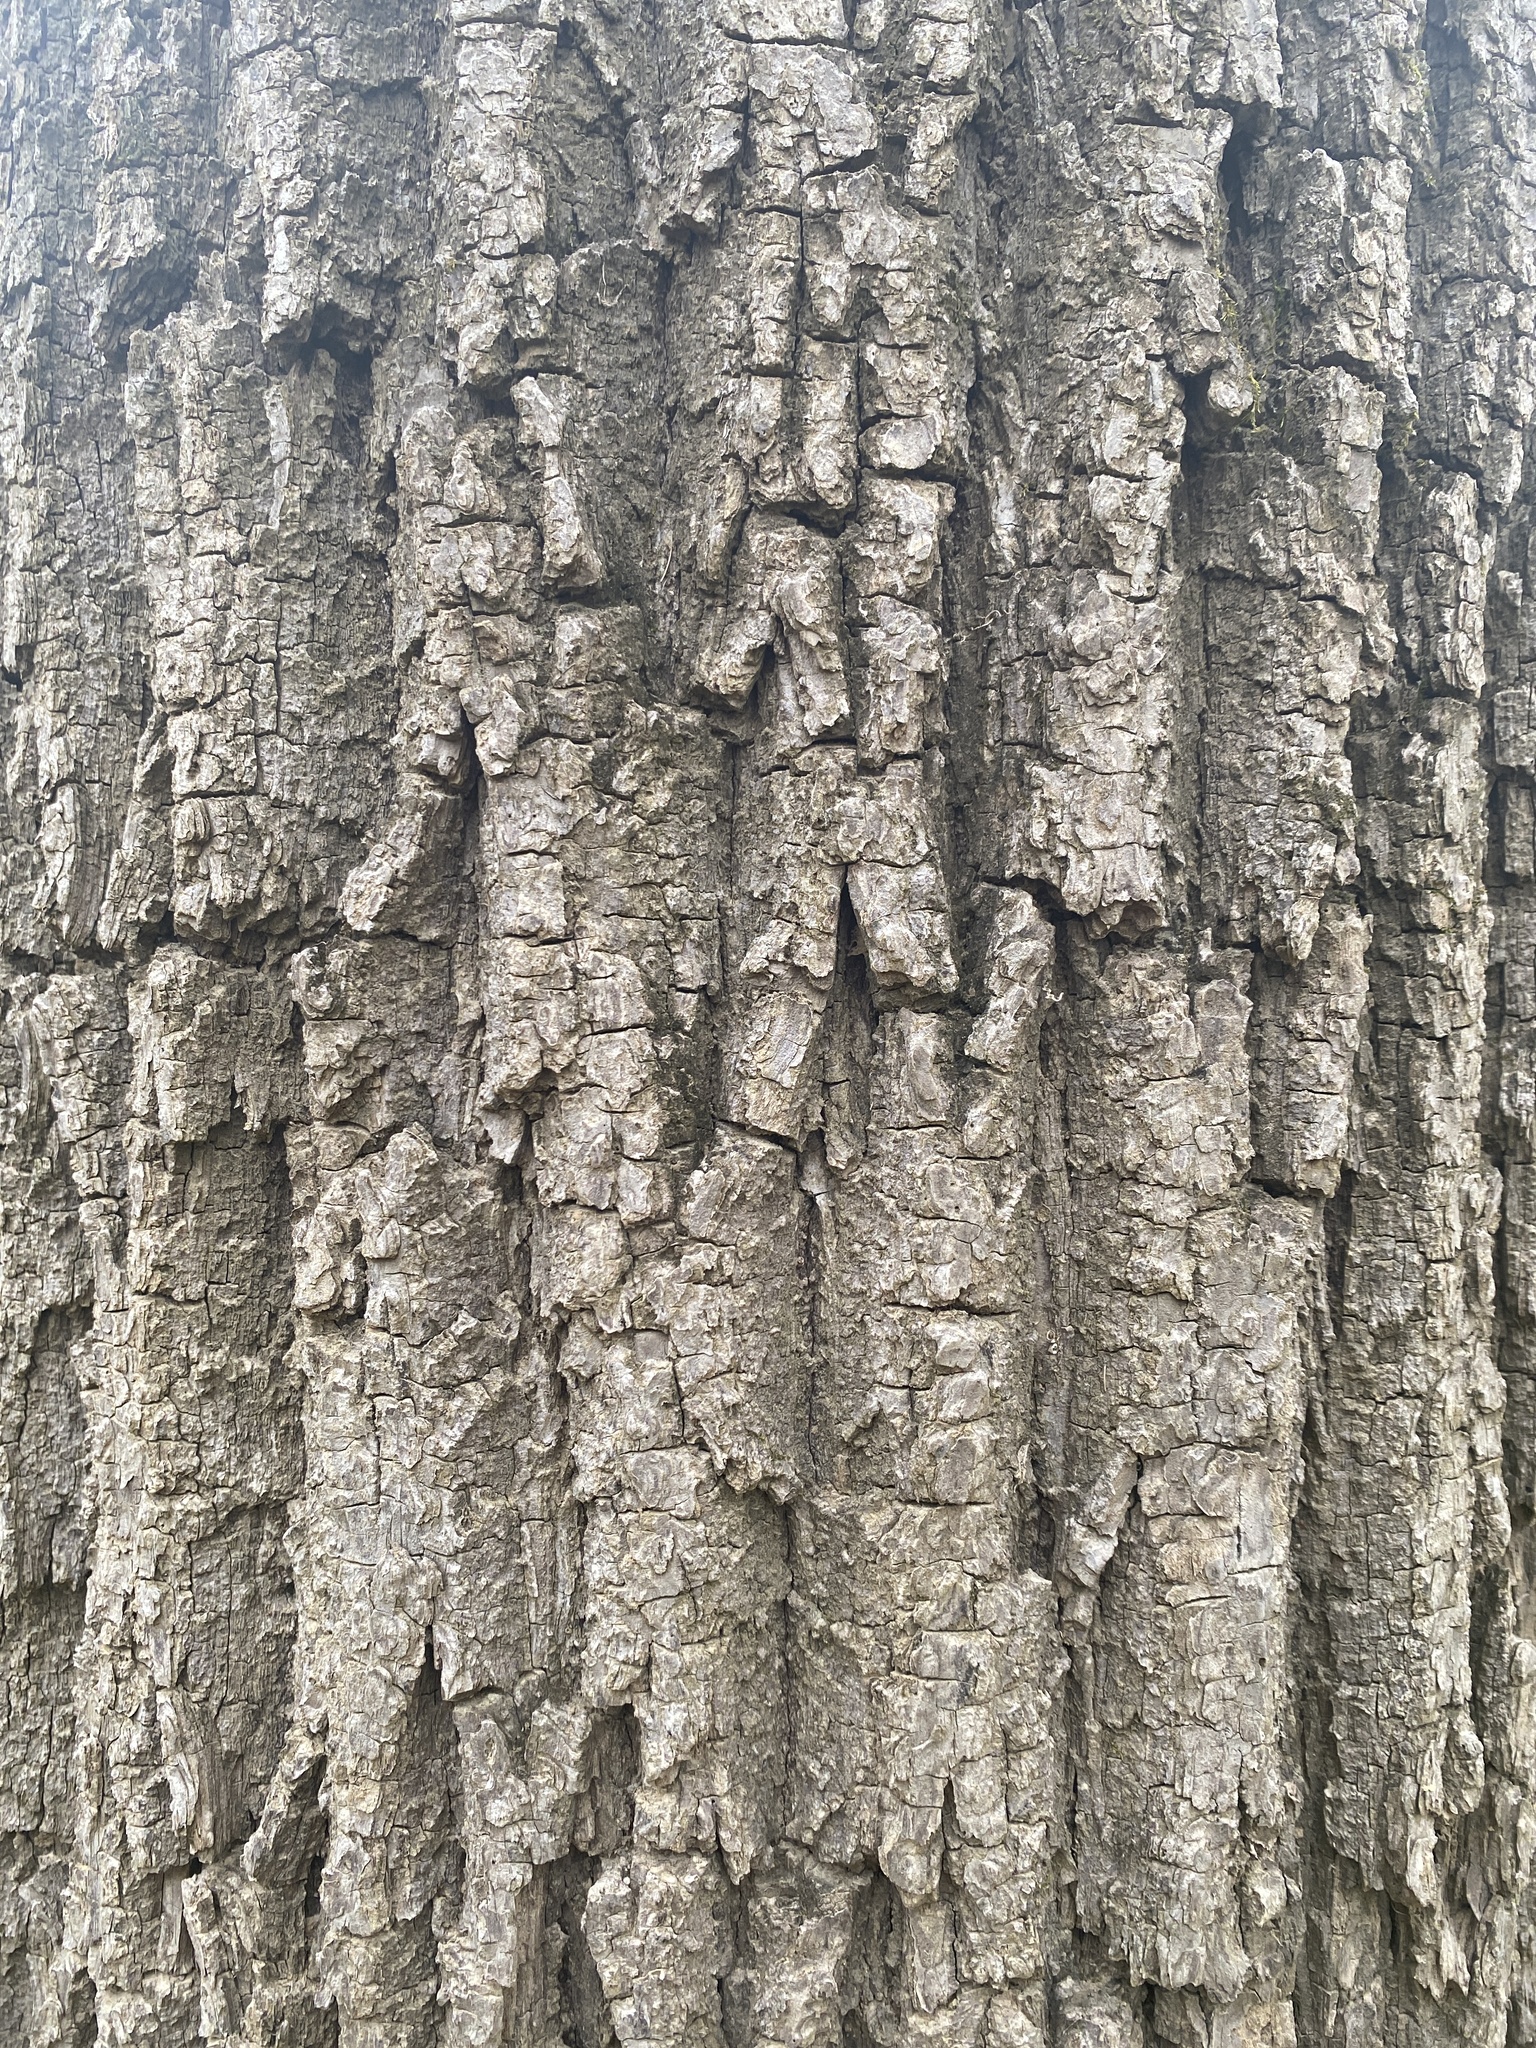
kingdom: Plantae
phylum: Tracheophyta
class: Magnoliopsida
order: Fagales
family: Juglandaceae
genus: Juglans
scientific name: Juglans nigra
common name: Black walnut
